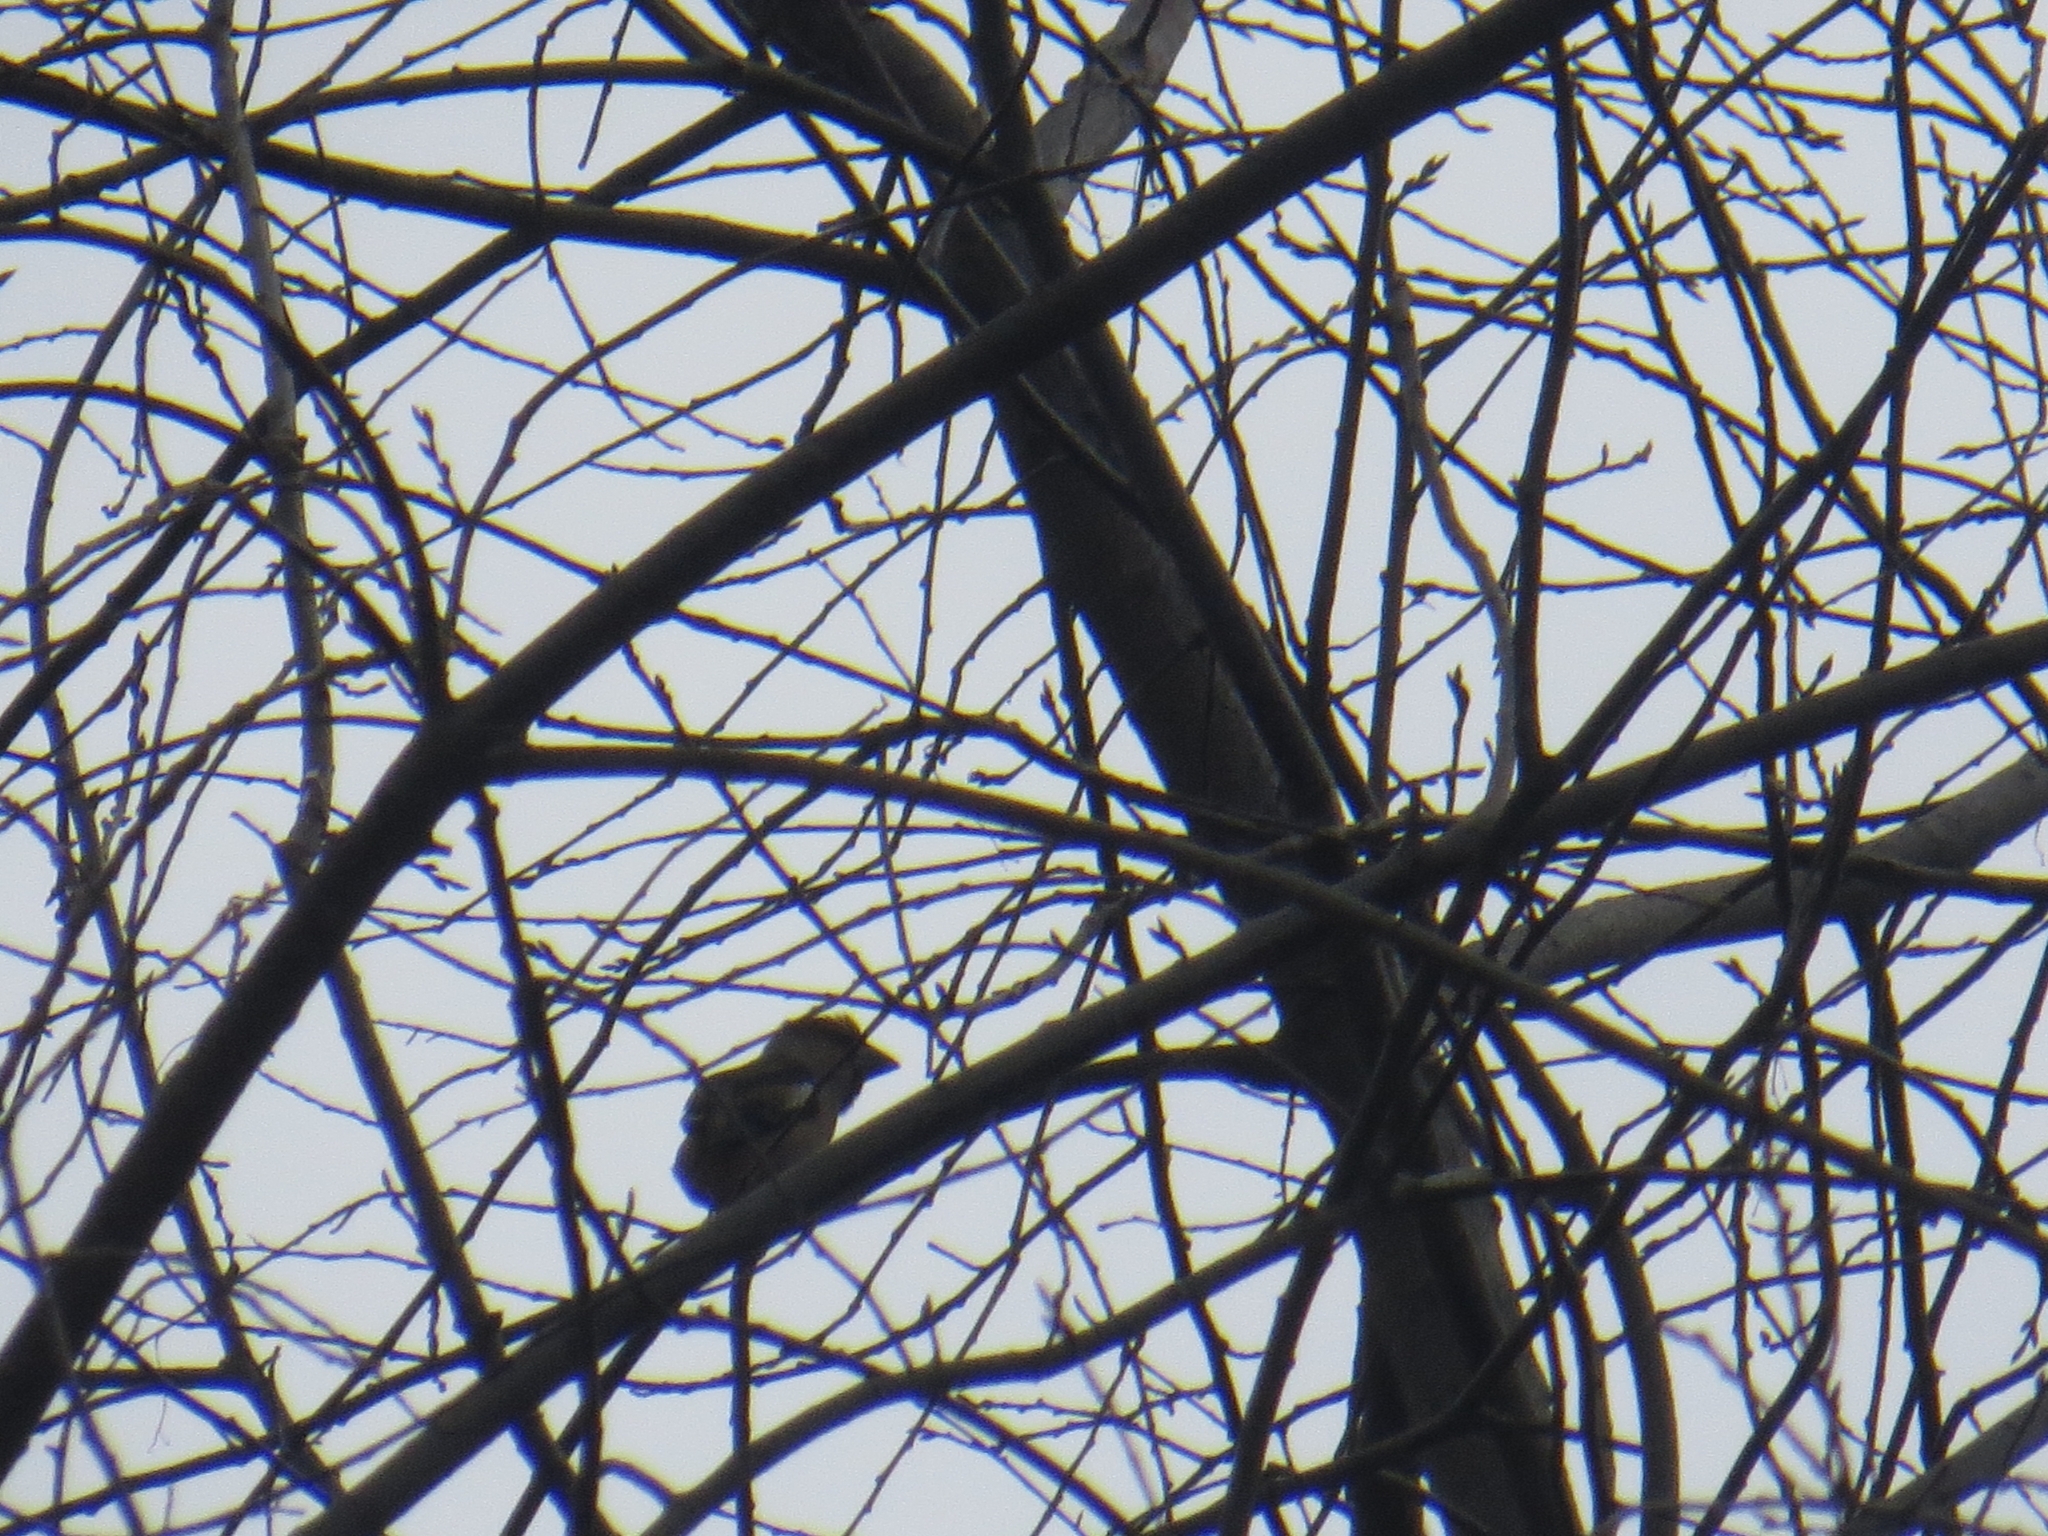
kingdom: Animalia
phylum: Chordata
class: Aves
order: Passeriformes
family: Fringillidae
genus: Coccothraustes
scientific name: Coccothraustes coccothraustes
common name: Hawfinch
